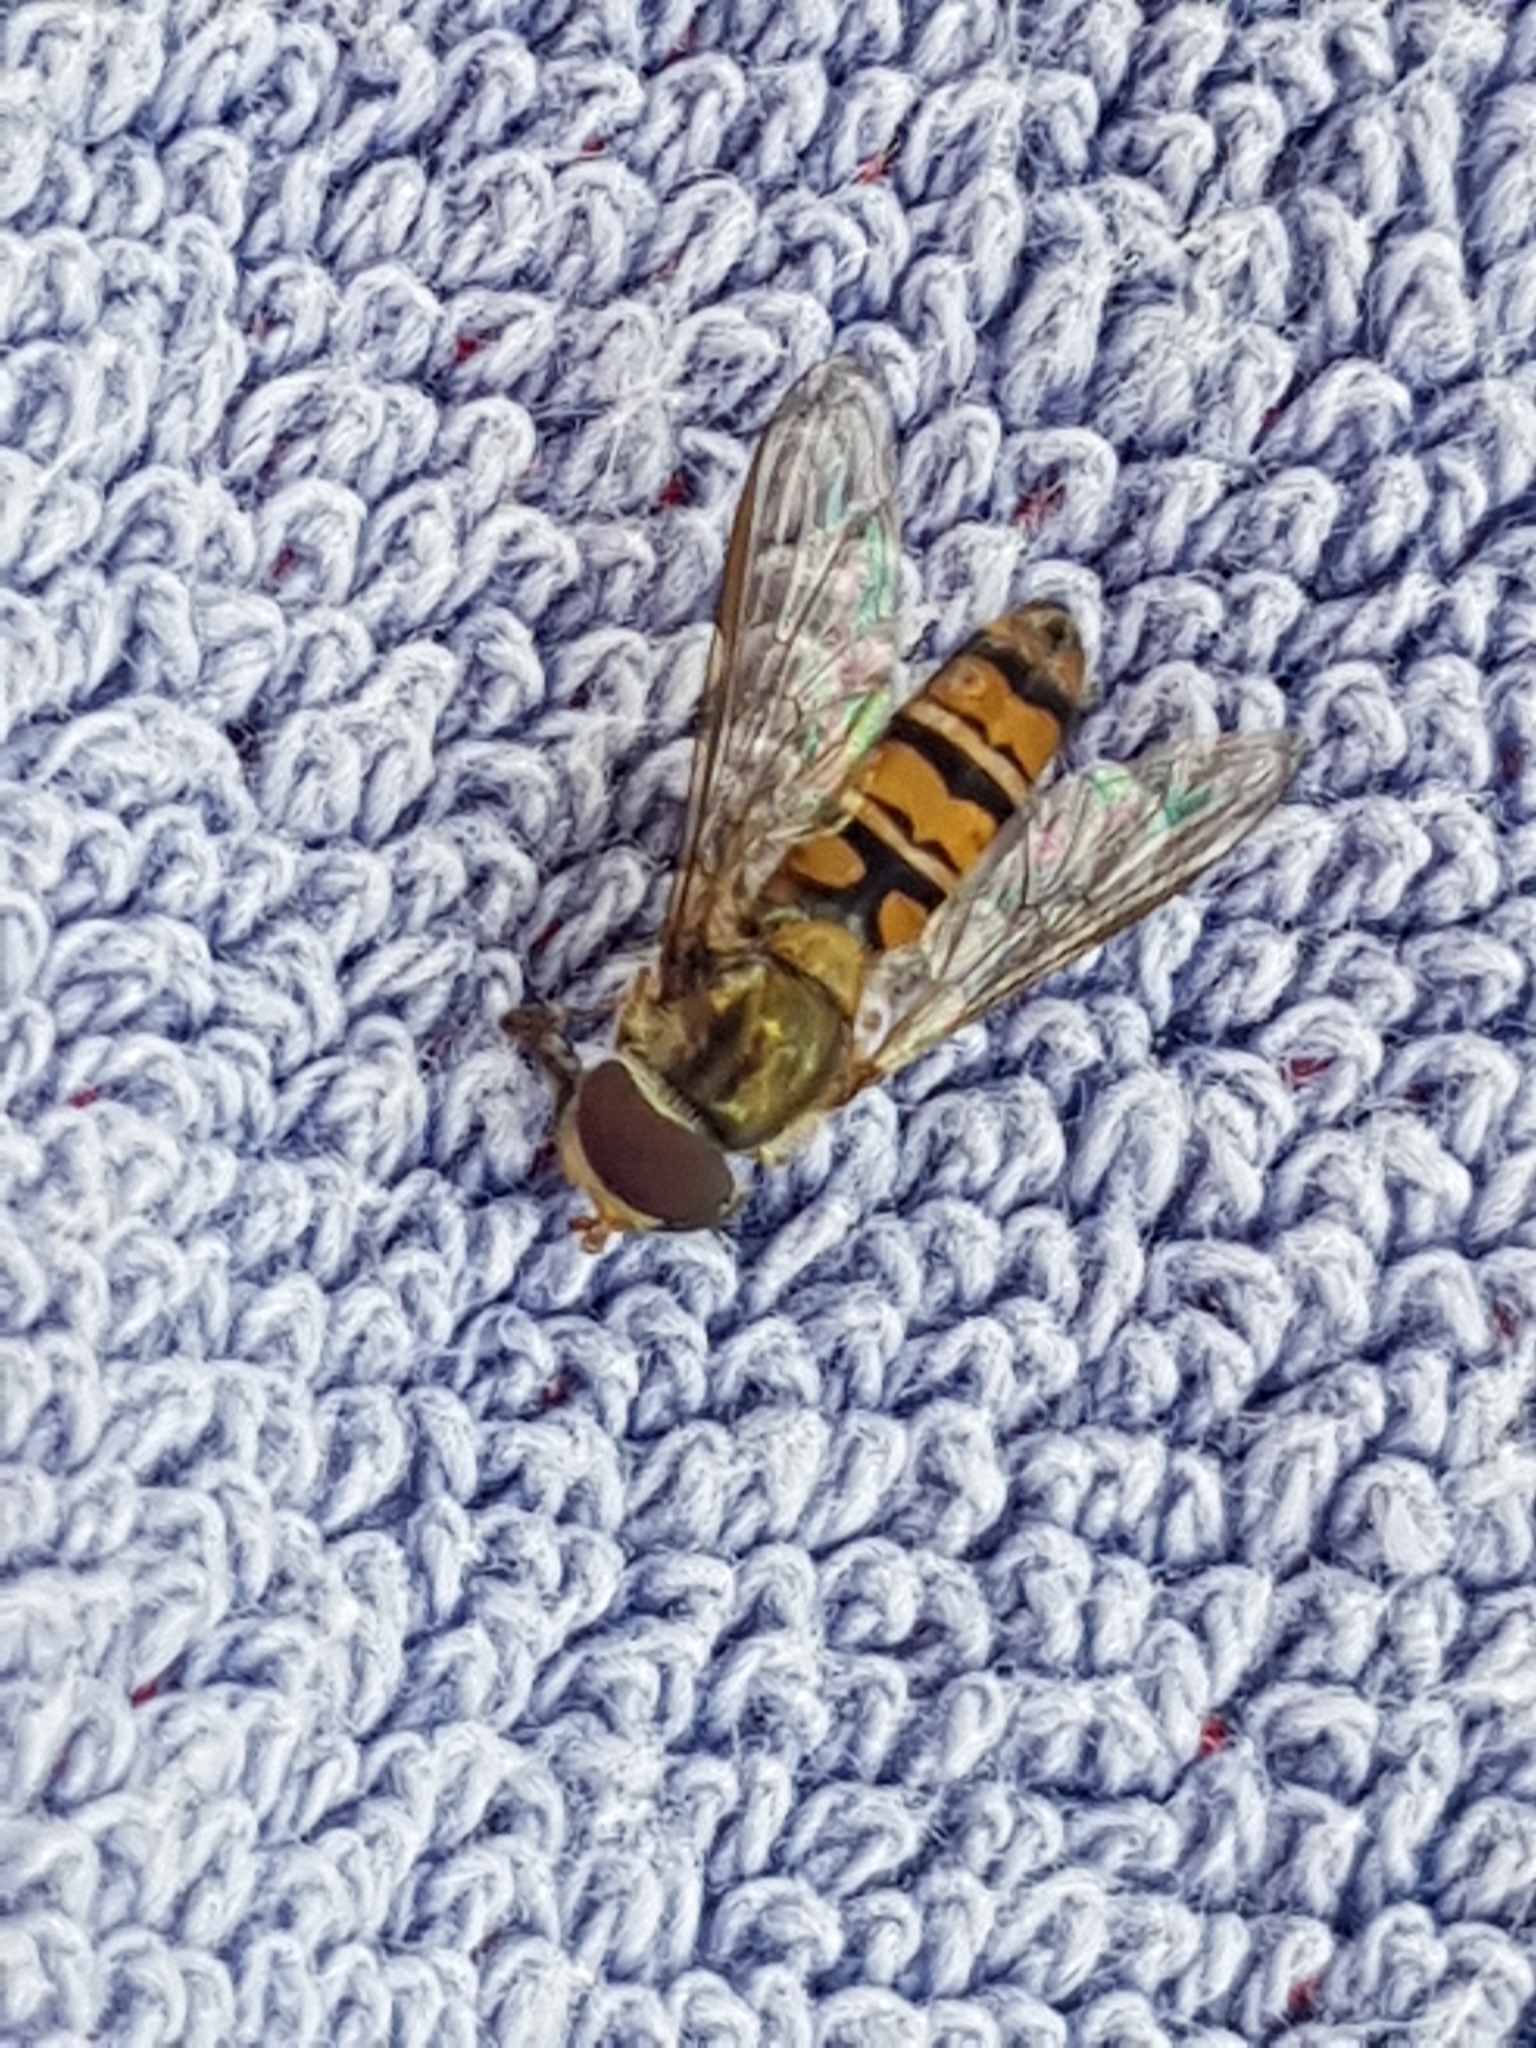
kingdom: Animalia
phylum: Arthropoda
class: Insecta
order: Diptera
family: Syrphidae
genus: Episyrphus
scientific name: Episyrphus balteatus
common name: Marmalade hoverfly
